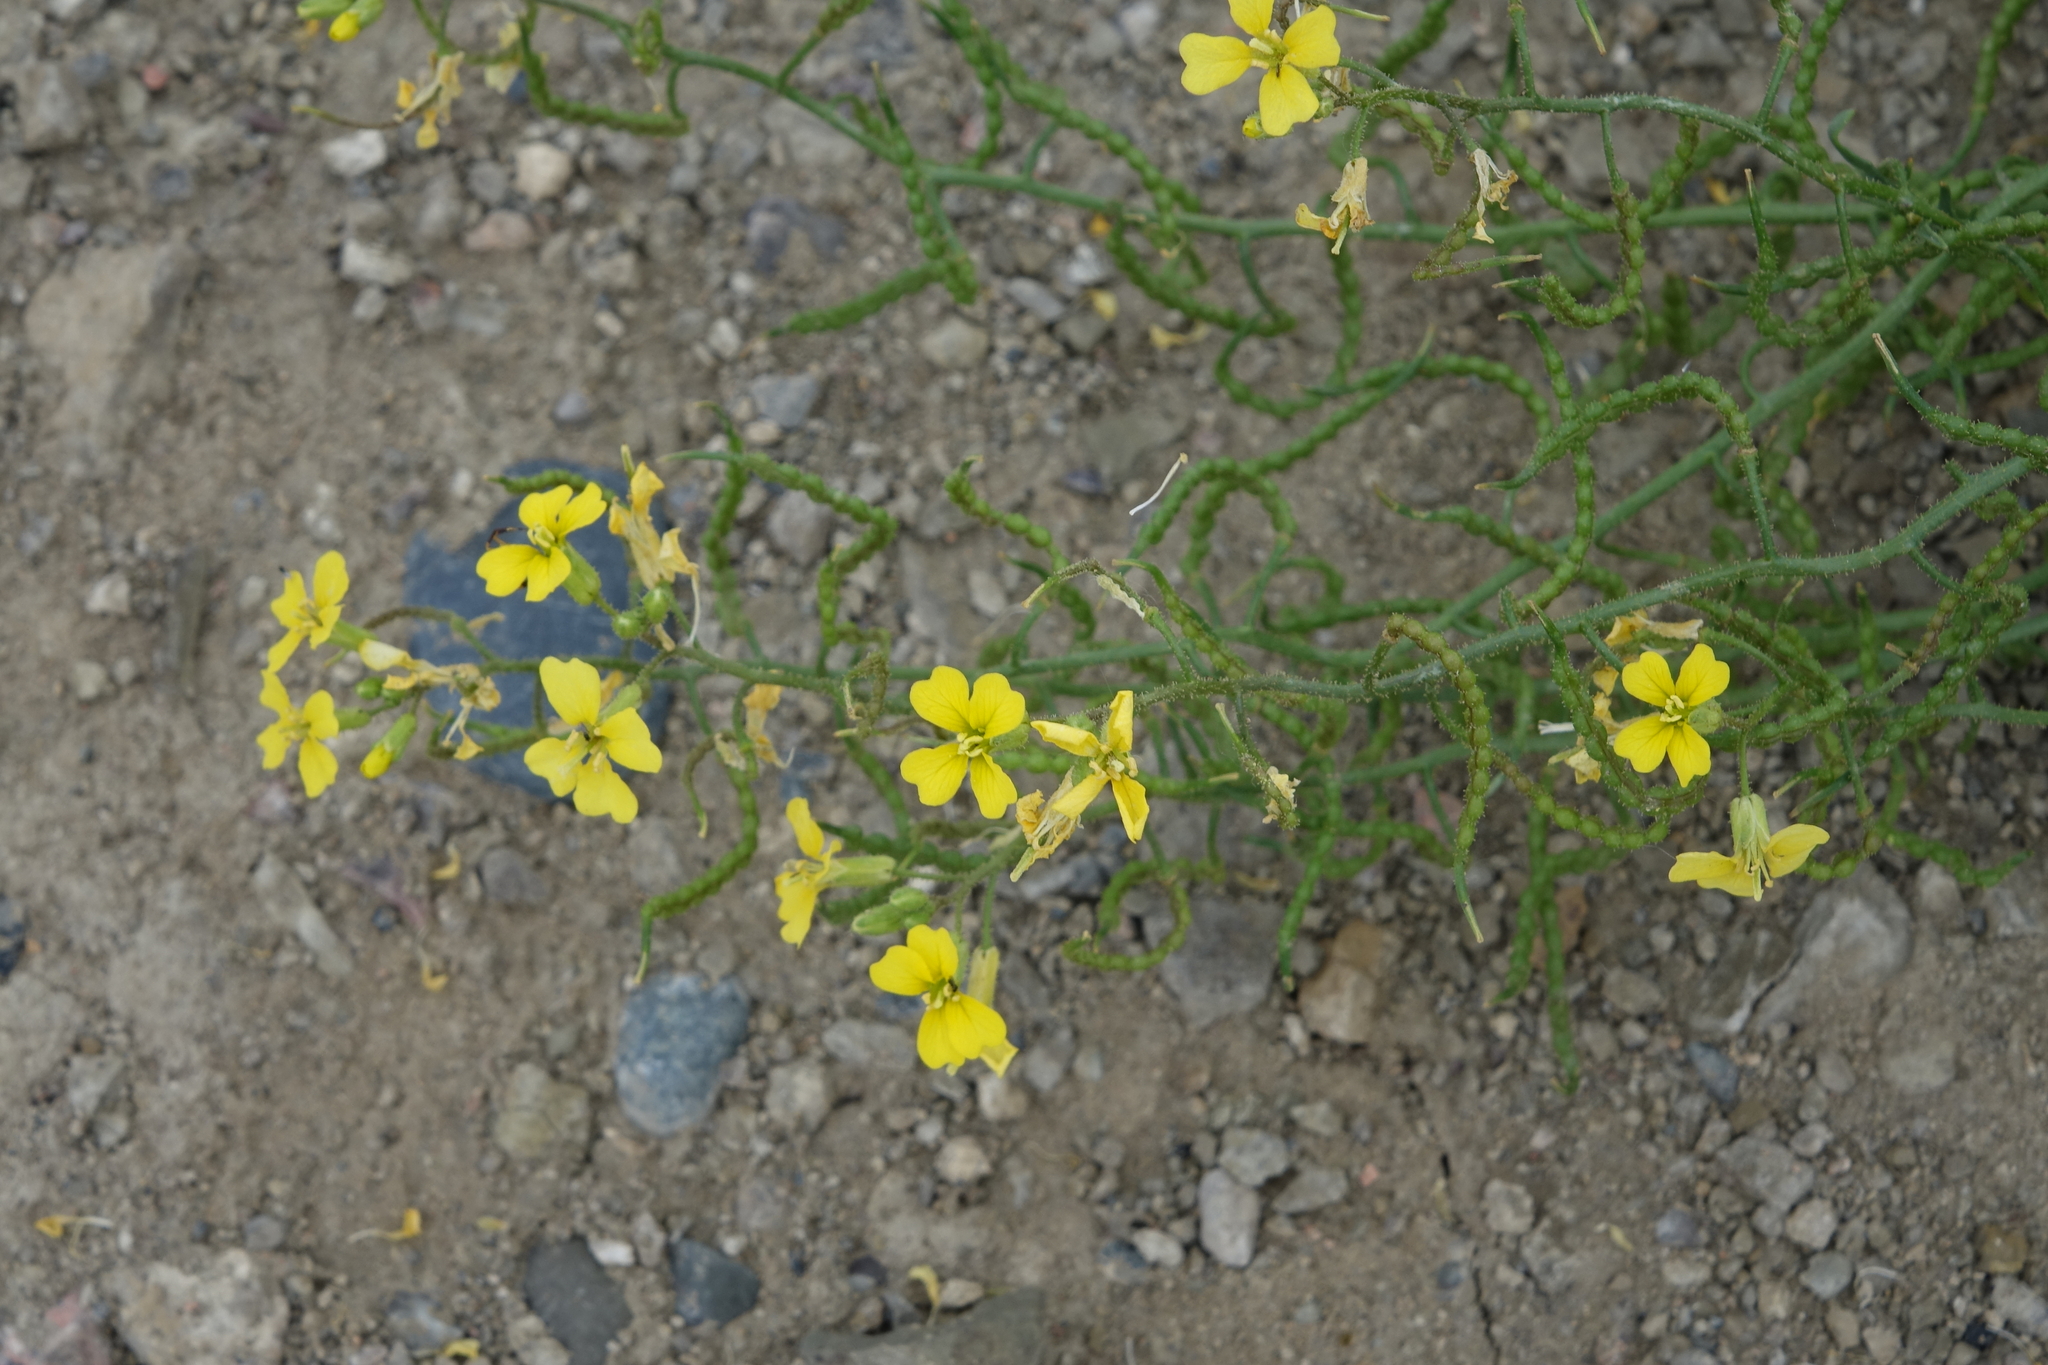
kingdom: Plantae
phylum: Tracheophyta
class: Magnoliopsida
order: Brassicales
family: Brassicaceae
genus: Chorispora
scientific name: Chorispora sibirica
